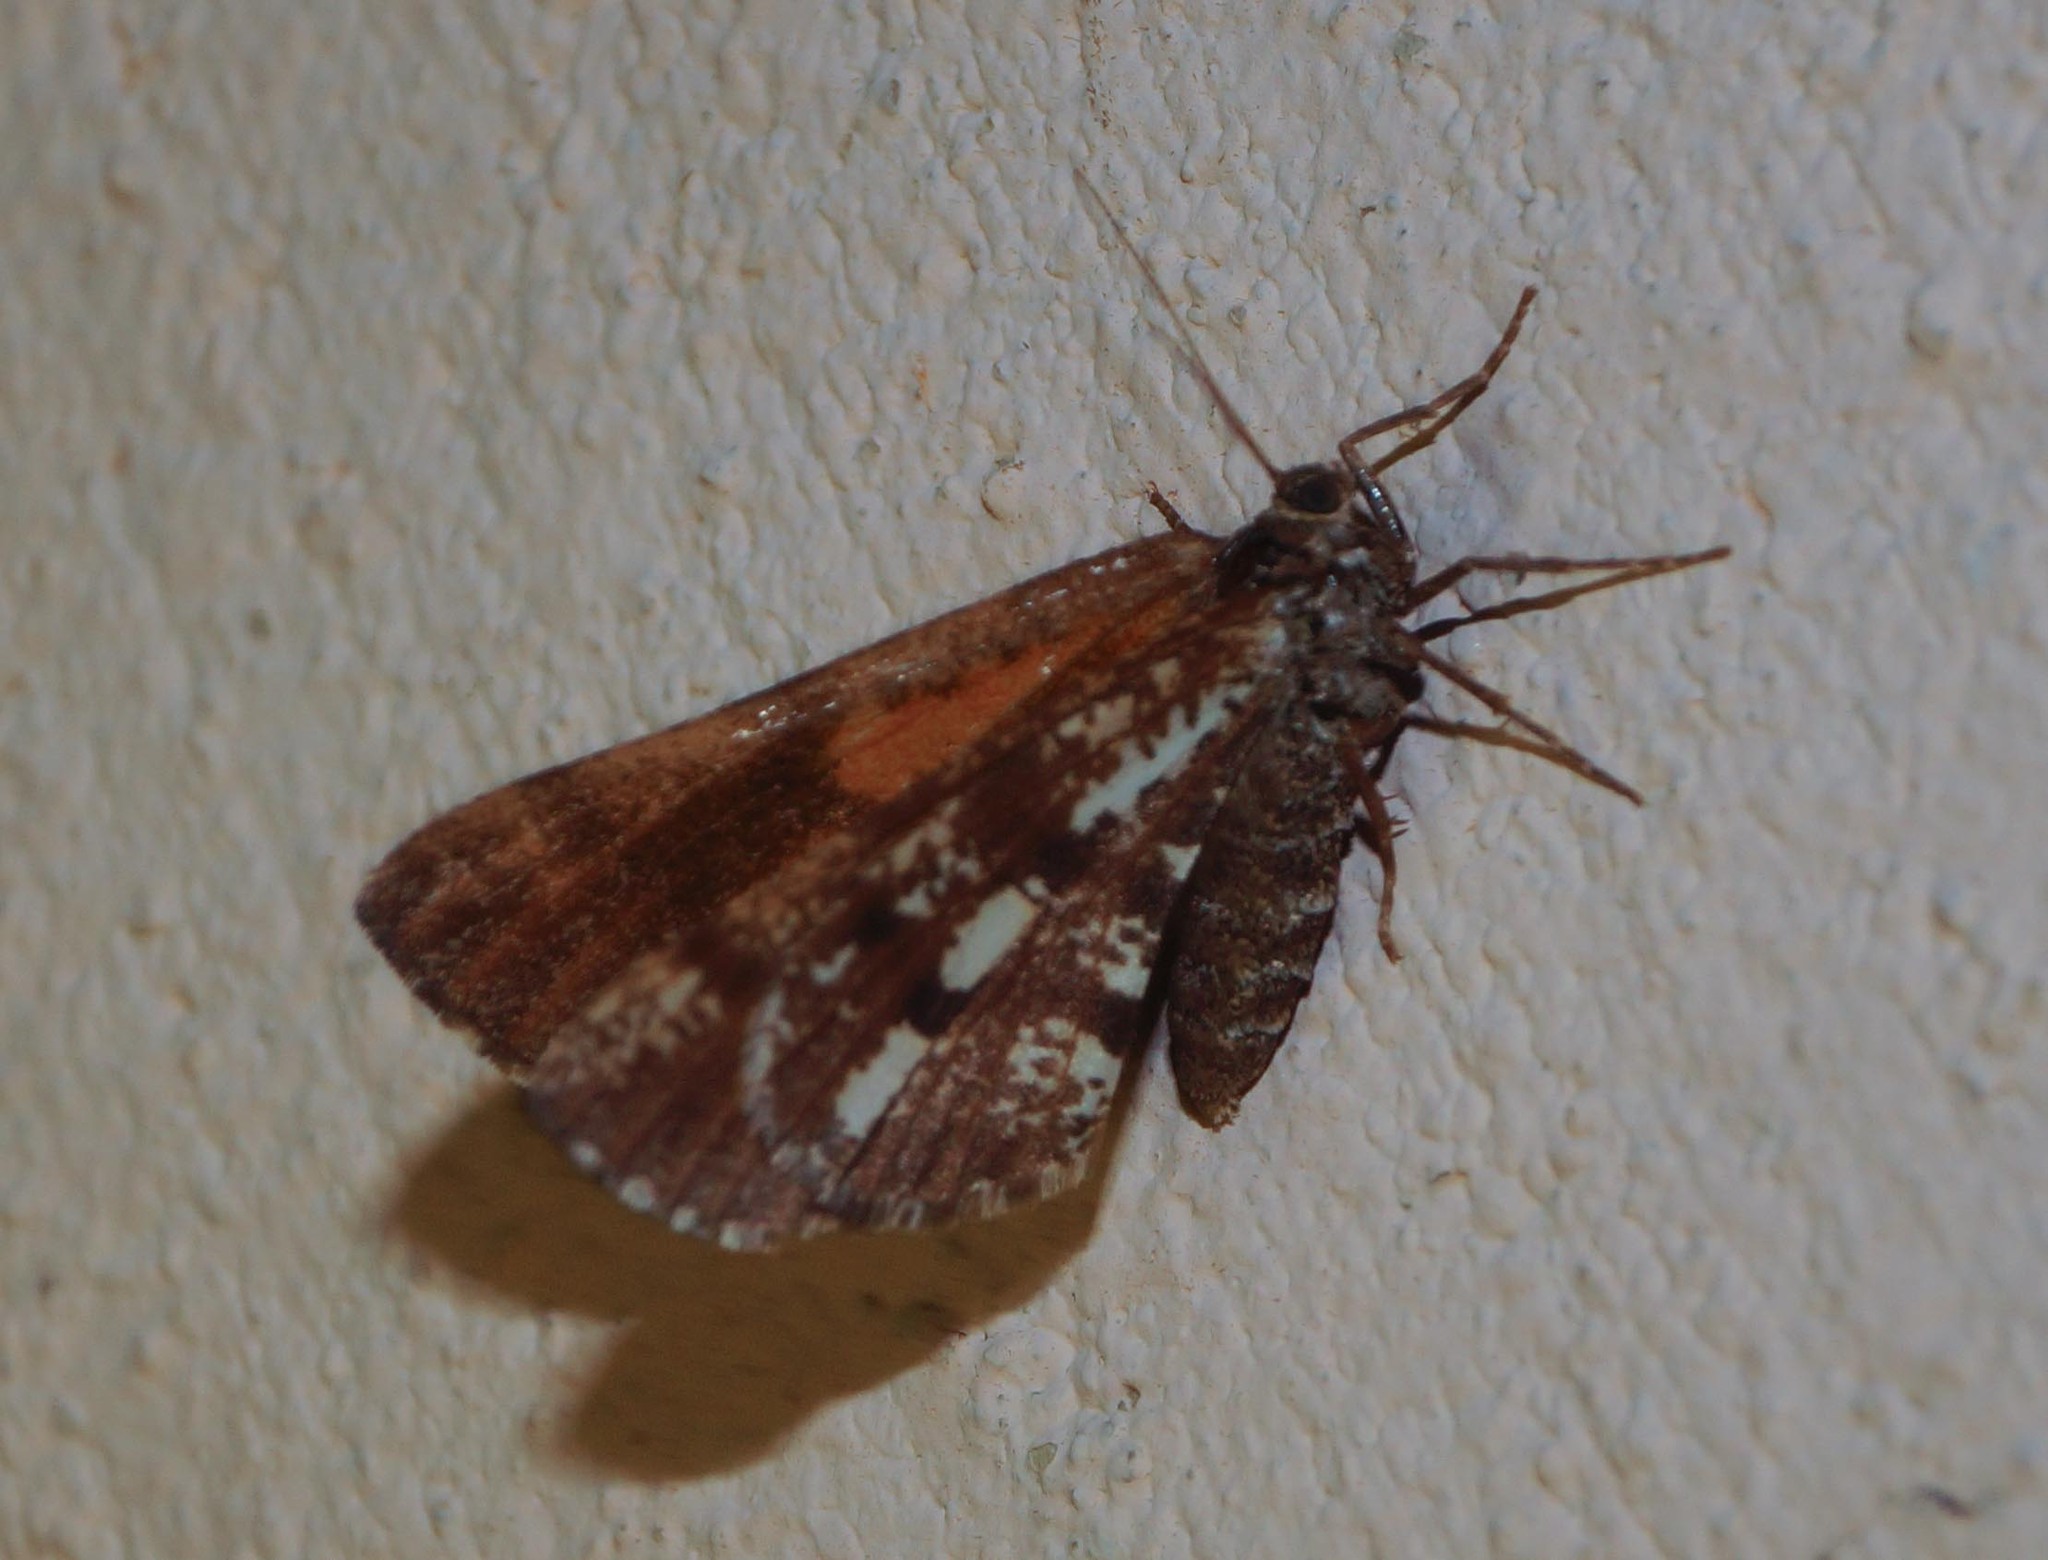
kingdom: Animalia
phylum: Arthropoda
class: Insecta
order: Lepidoptera
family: Geometridae
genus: Bupalus
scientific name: Bupalus piniaria
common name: Bordered white
